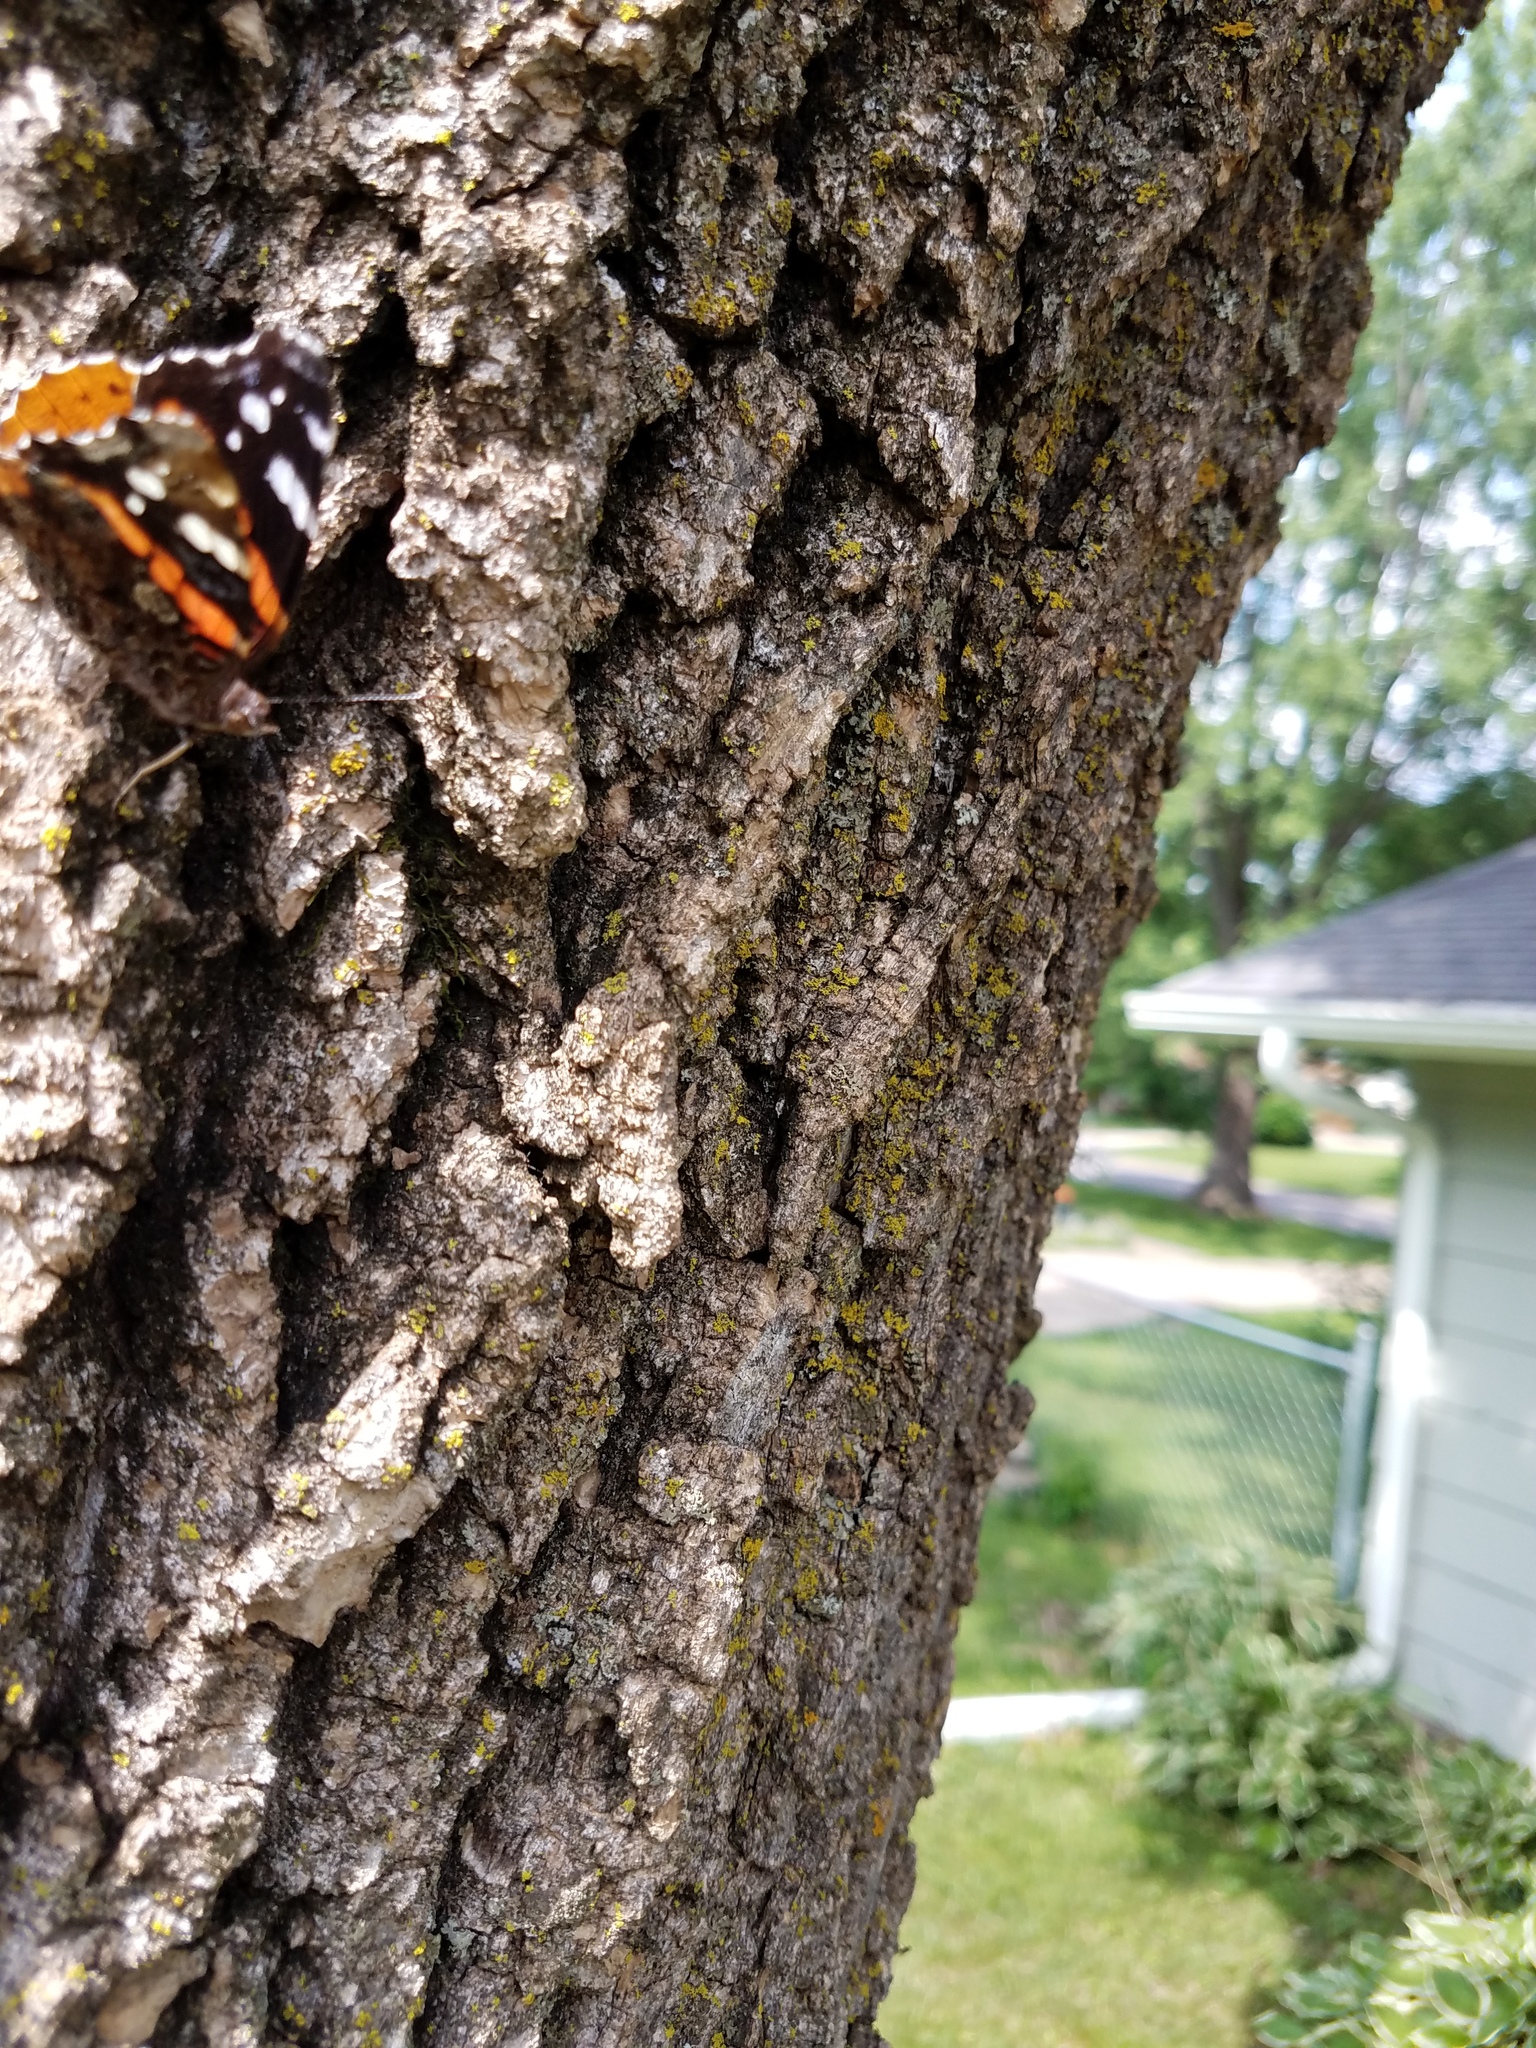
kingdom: Animalia
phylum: Arthropoda
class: Insecta
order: Lepidoptera
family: Nymphalidae
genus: Vanessa
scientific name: Vanessa atalanta
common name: Red admiral
